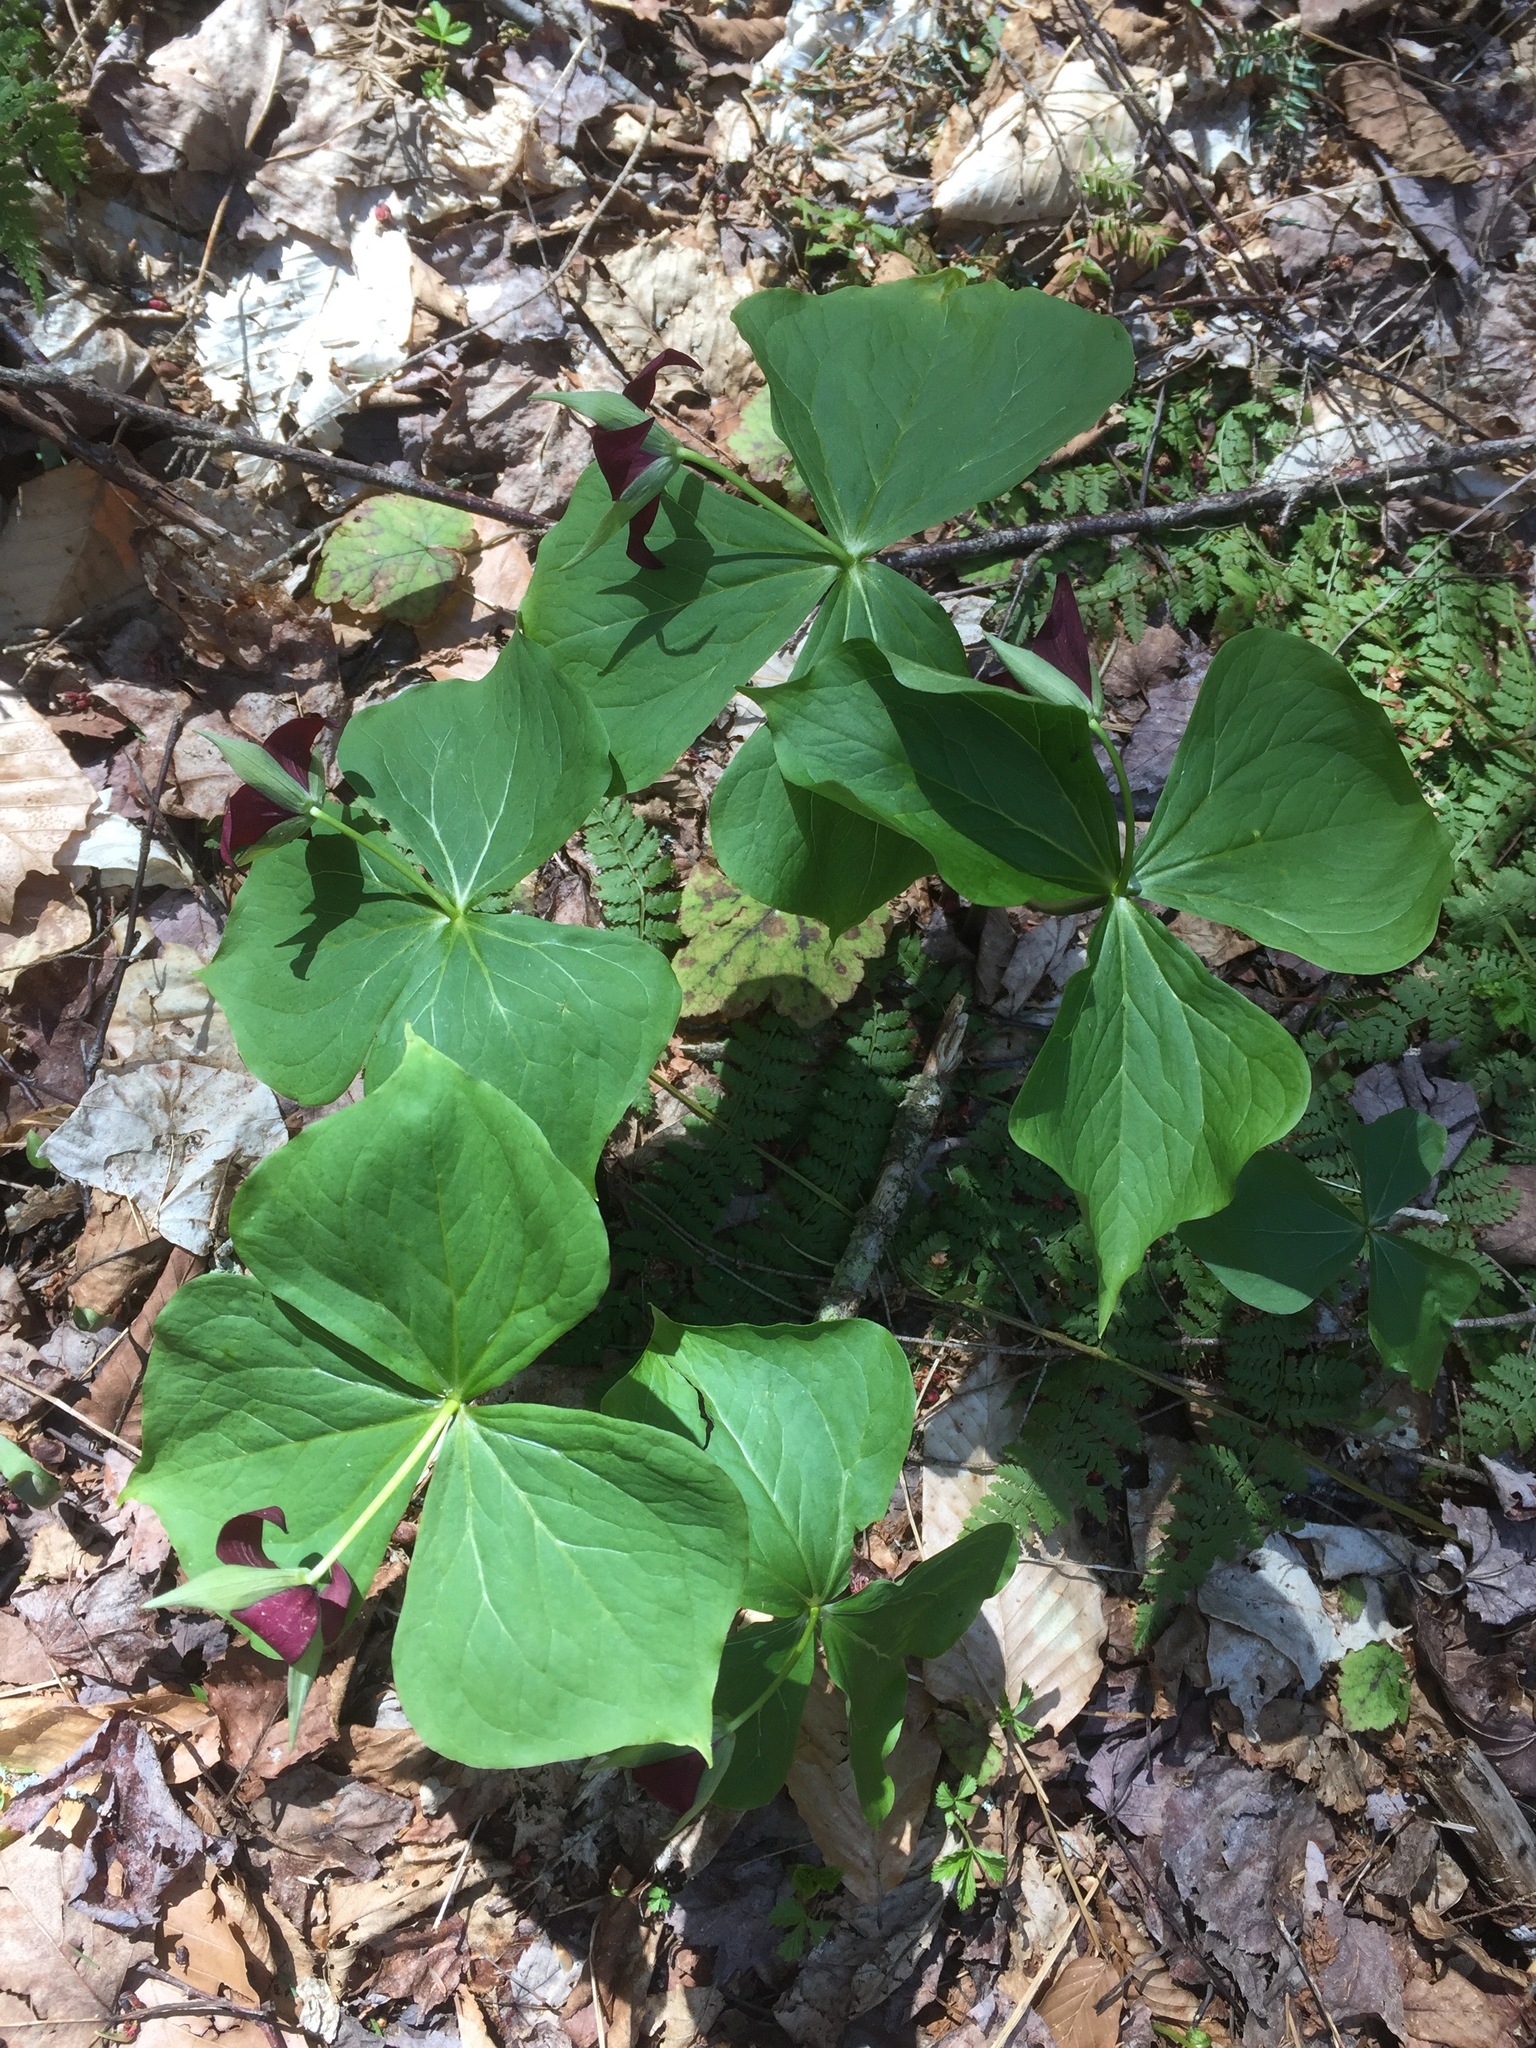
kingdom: Plantae
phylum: Tracheophyta
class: Liliopsida
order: Liliales
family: Melanthiaceae
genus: Trillium
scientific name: Trillium erectum
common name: Purple trillium
